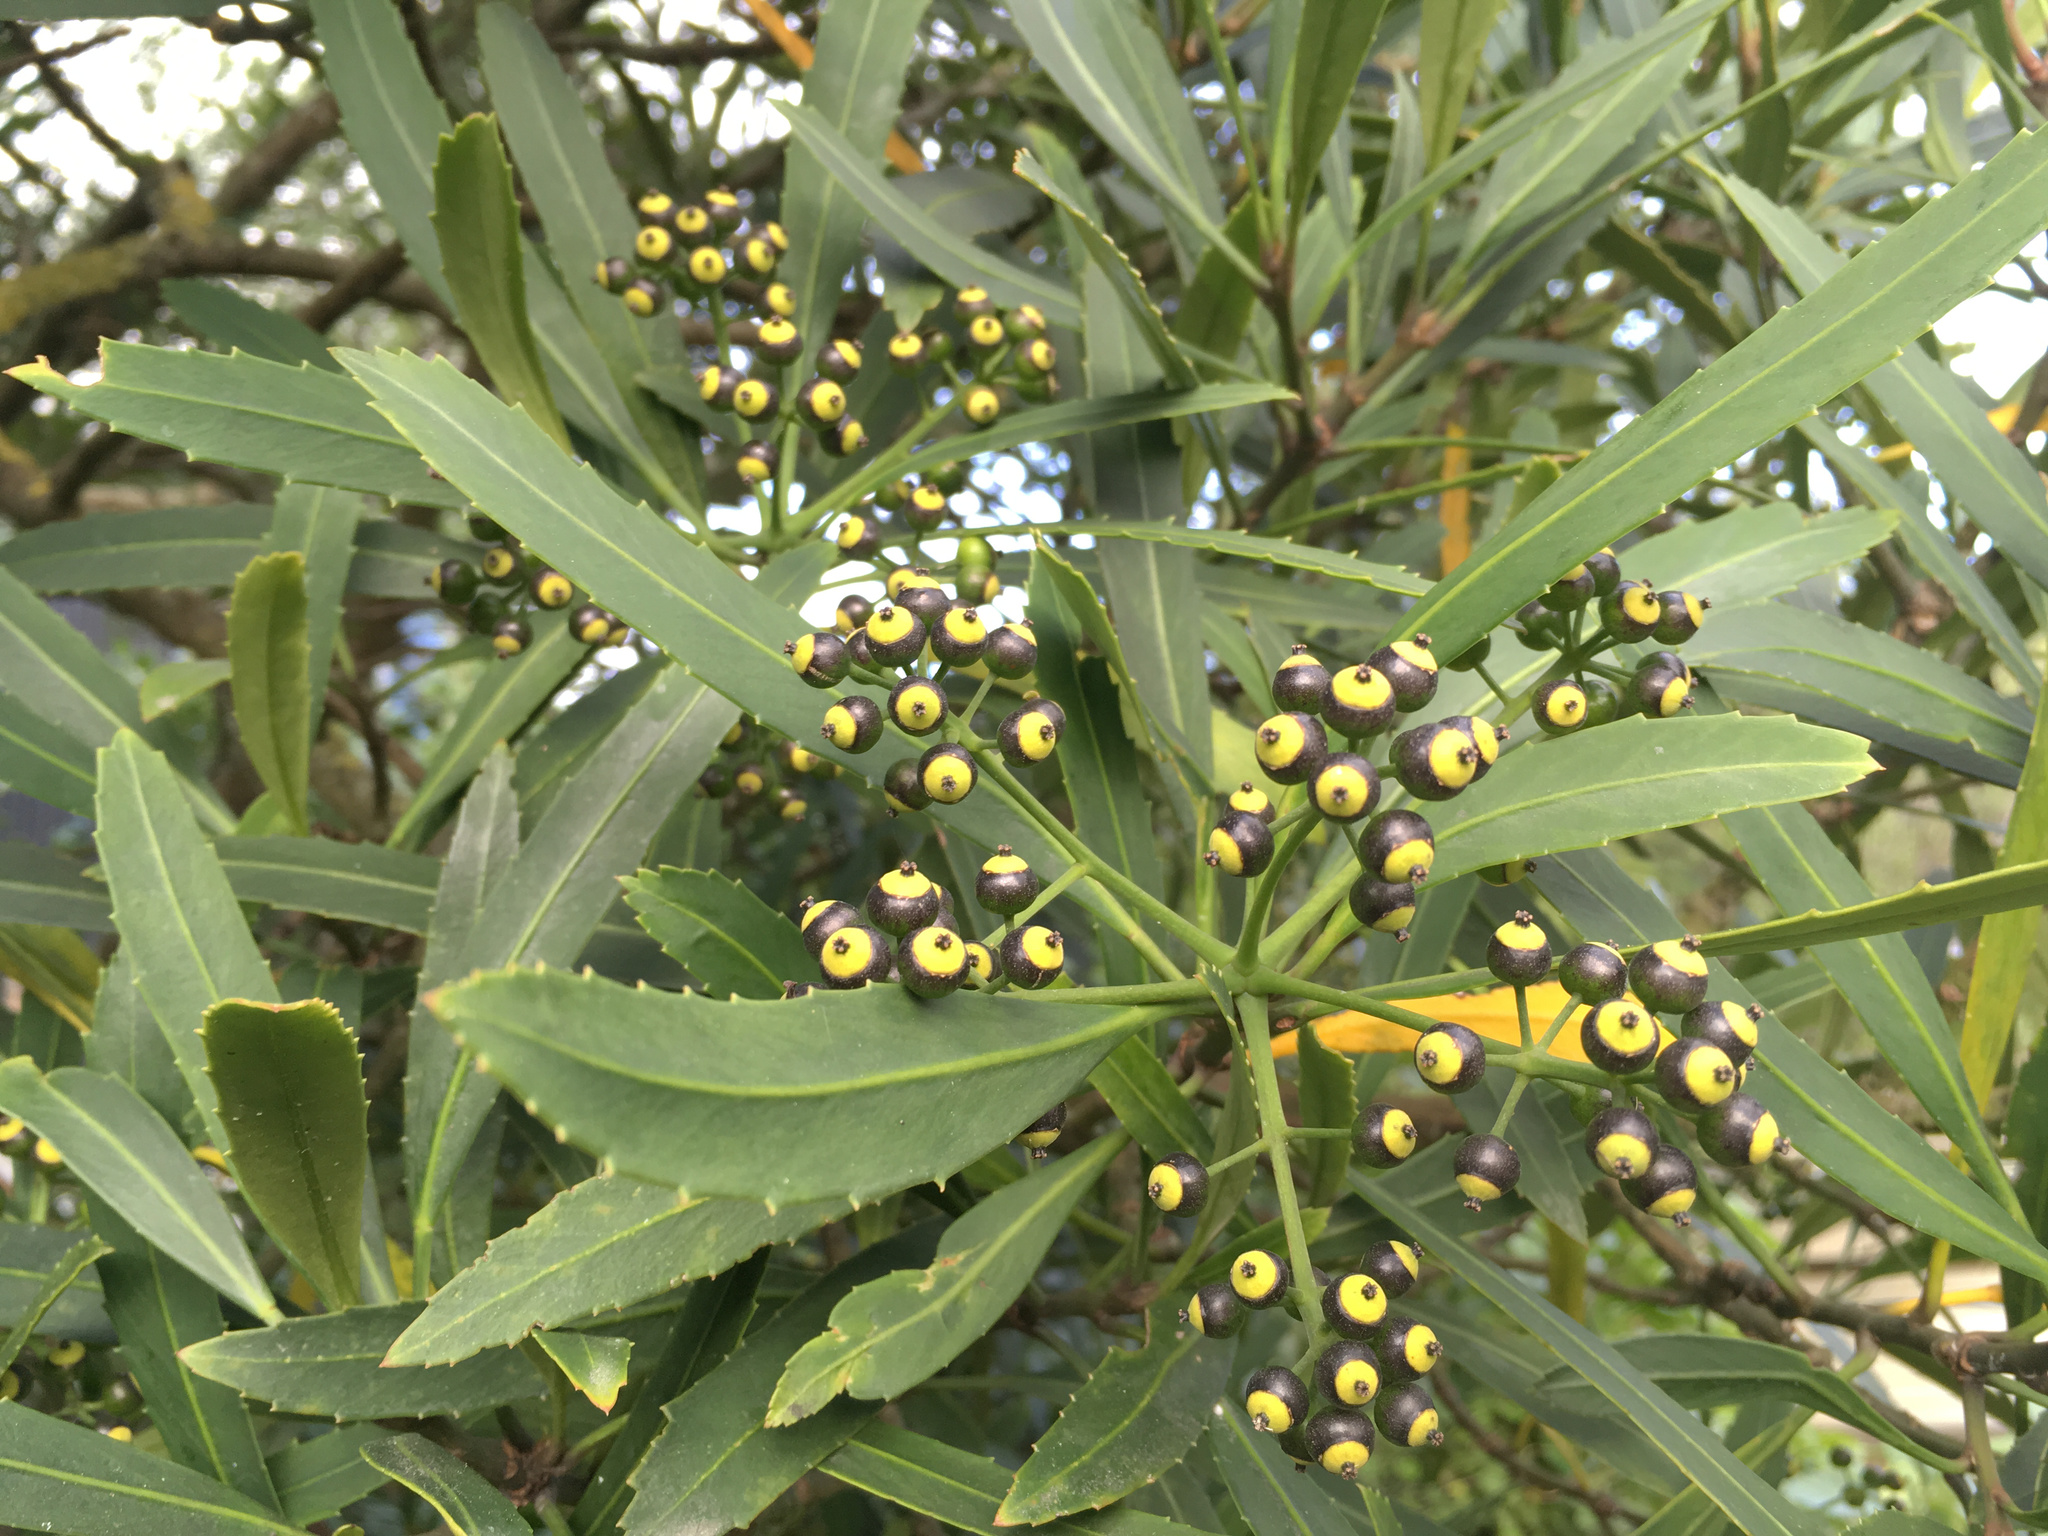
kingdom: Plantae
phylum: Tracheophyta
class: Magnoliopsida
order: Apiales
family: Araliaceae
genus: Pseudopanax
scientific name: Pseudopanax crassifolius
